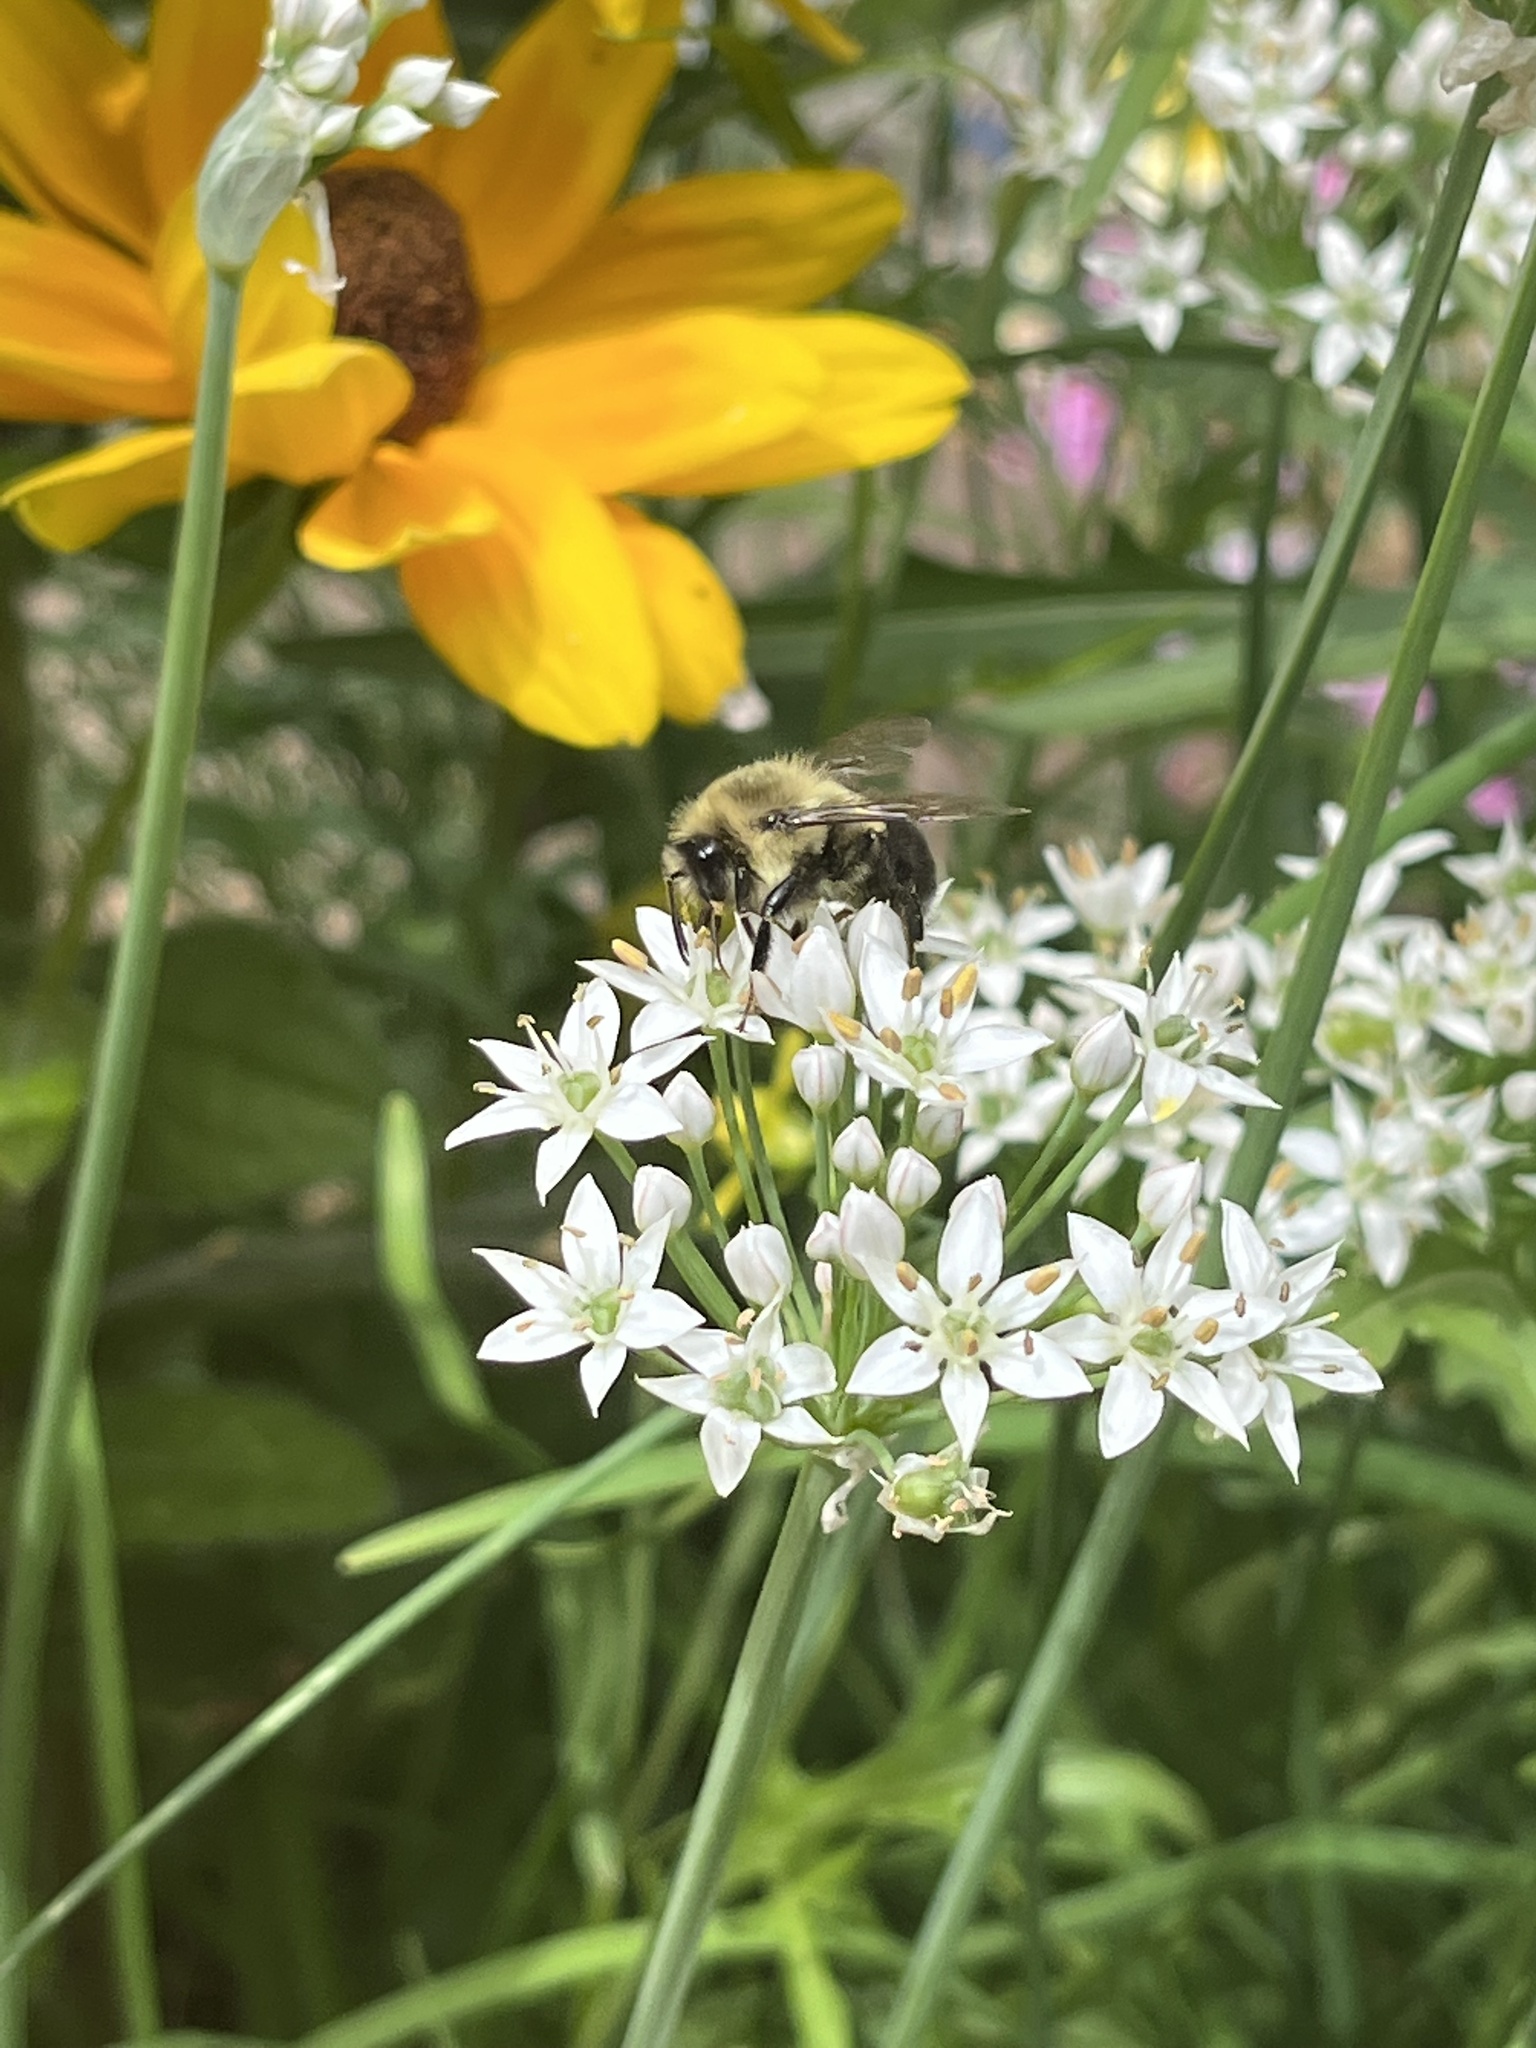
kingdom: Animalia
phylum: Arthropoda
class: Insecta
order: Hymenoptera
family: Apidae
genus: Bombus
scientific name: Bombus impatiens
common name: Common eastern bumble bee
